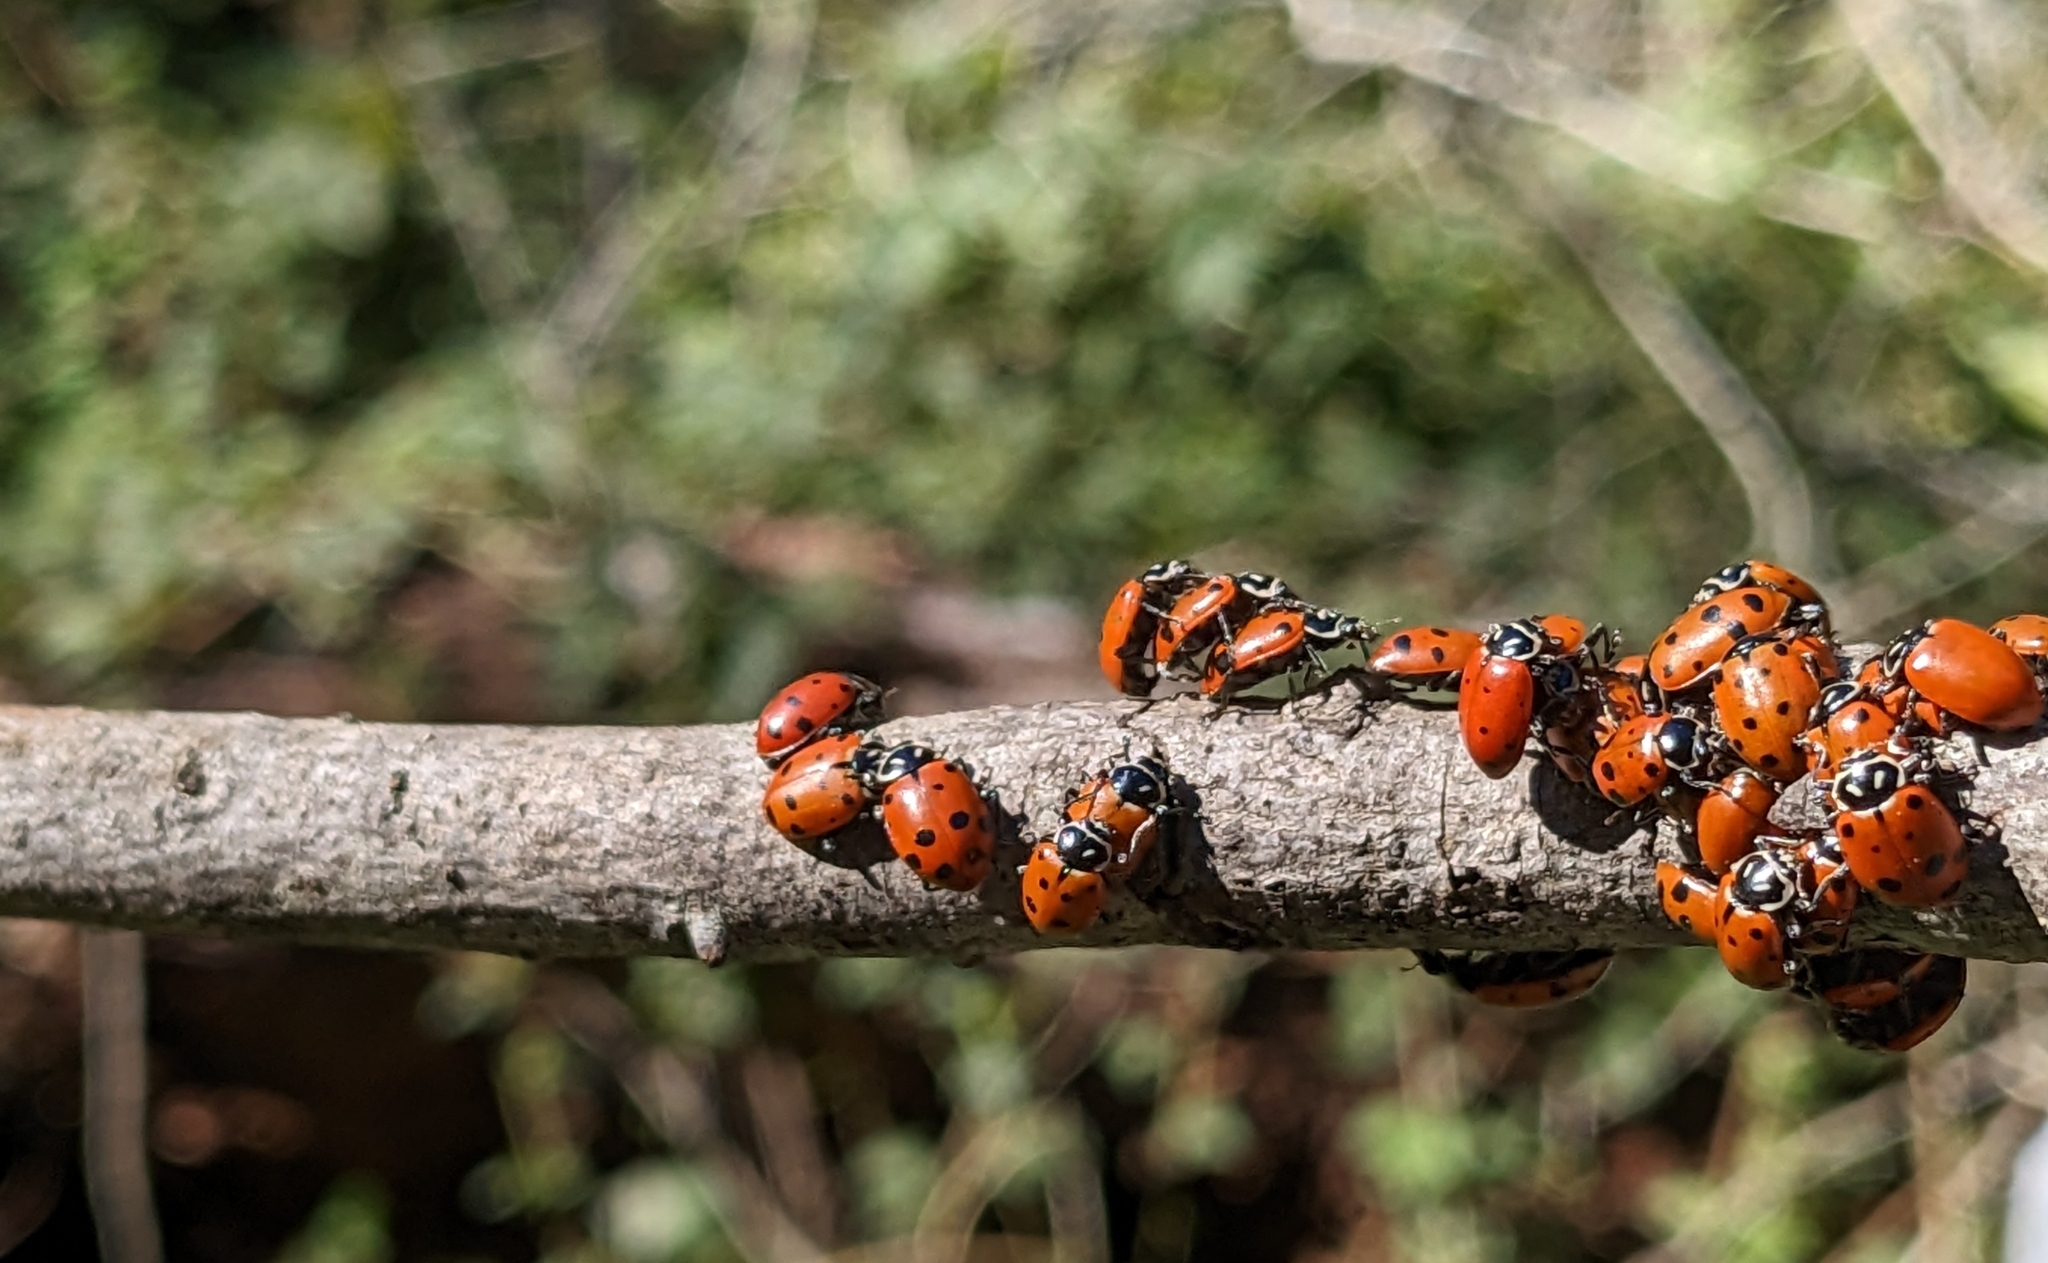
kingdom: Animalia
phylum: Arthropoda
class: Insecta
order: Coleoptera
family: Coccinellidae
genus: Hippodamia
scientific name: Hippodamia convergens
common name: Convergent lady beetle
